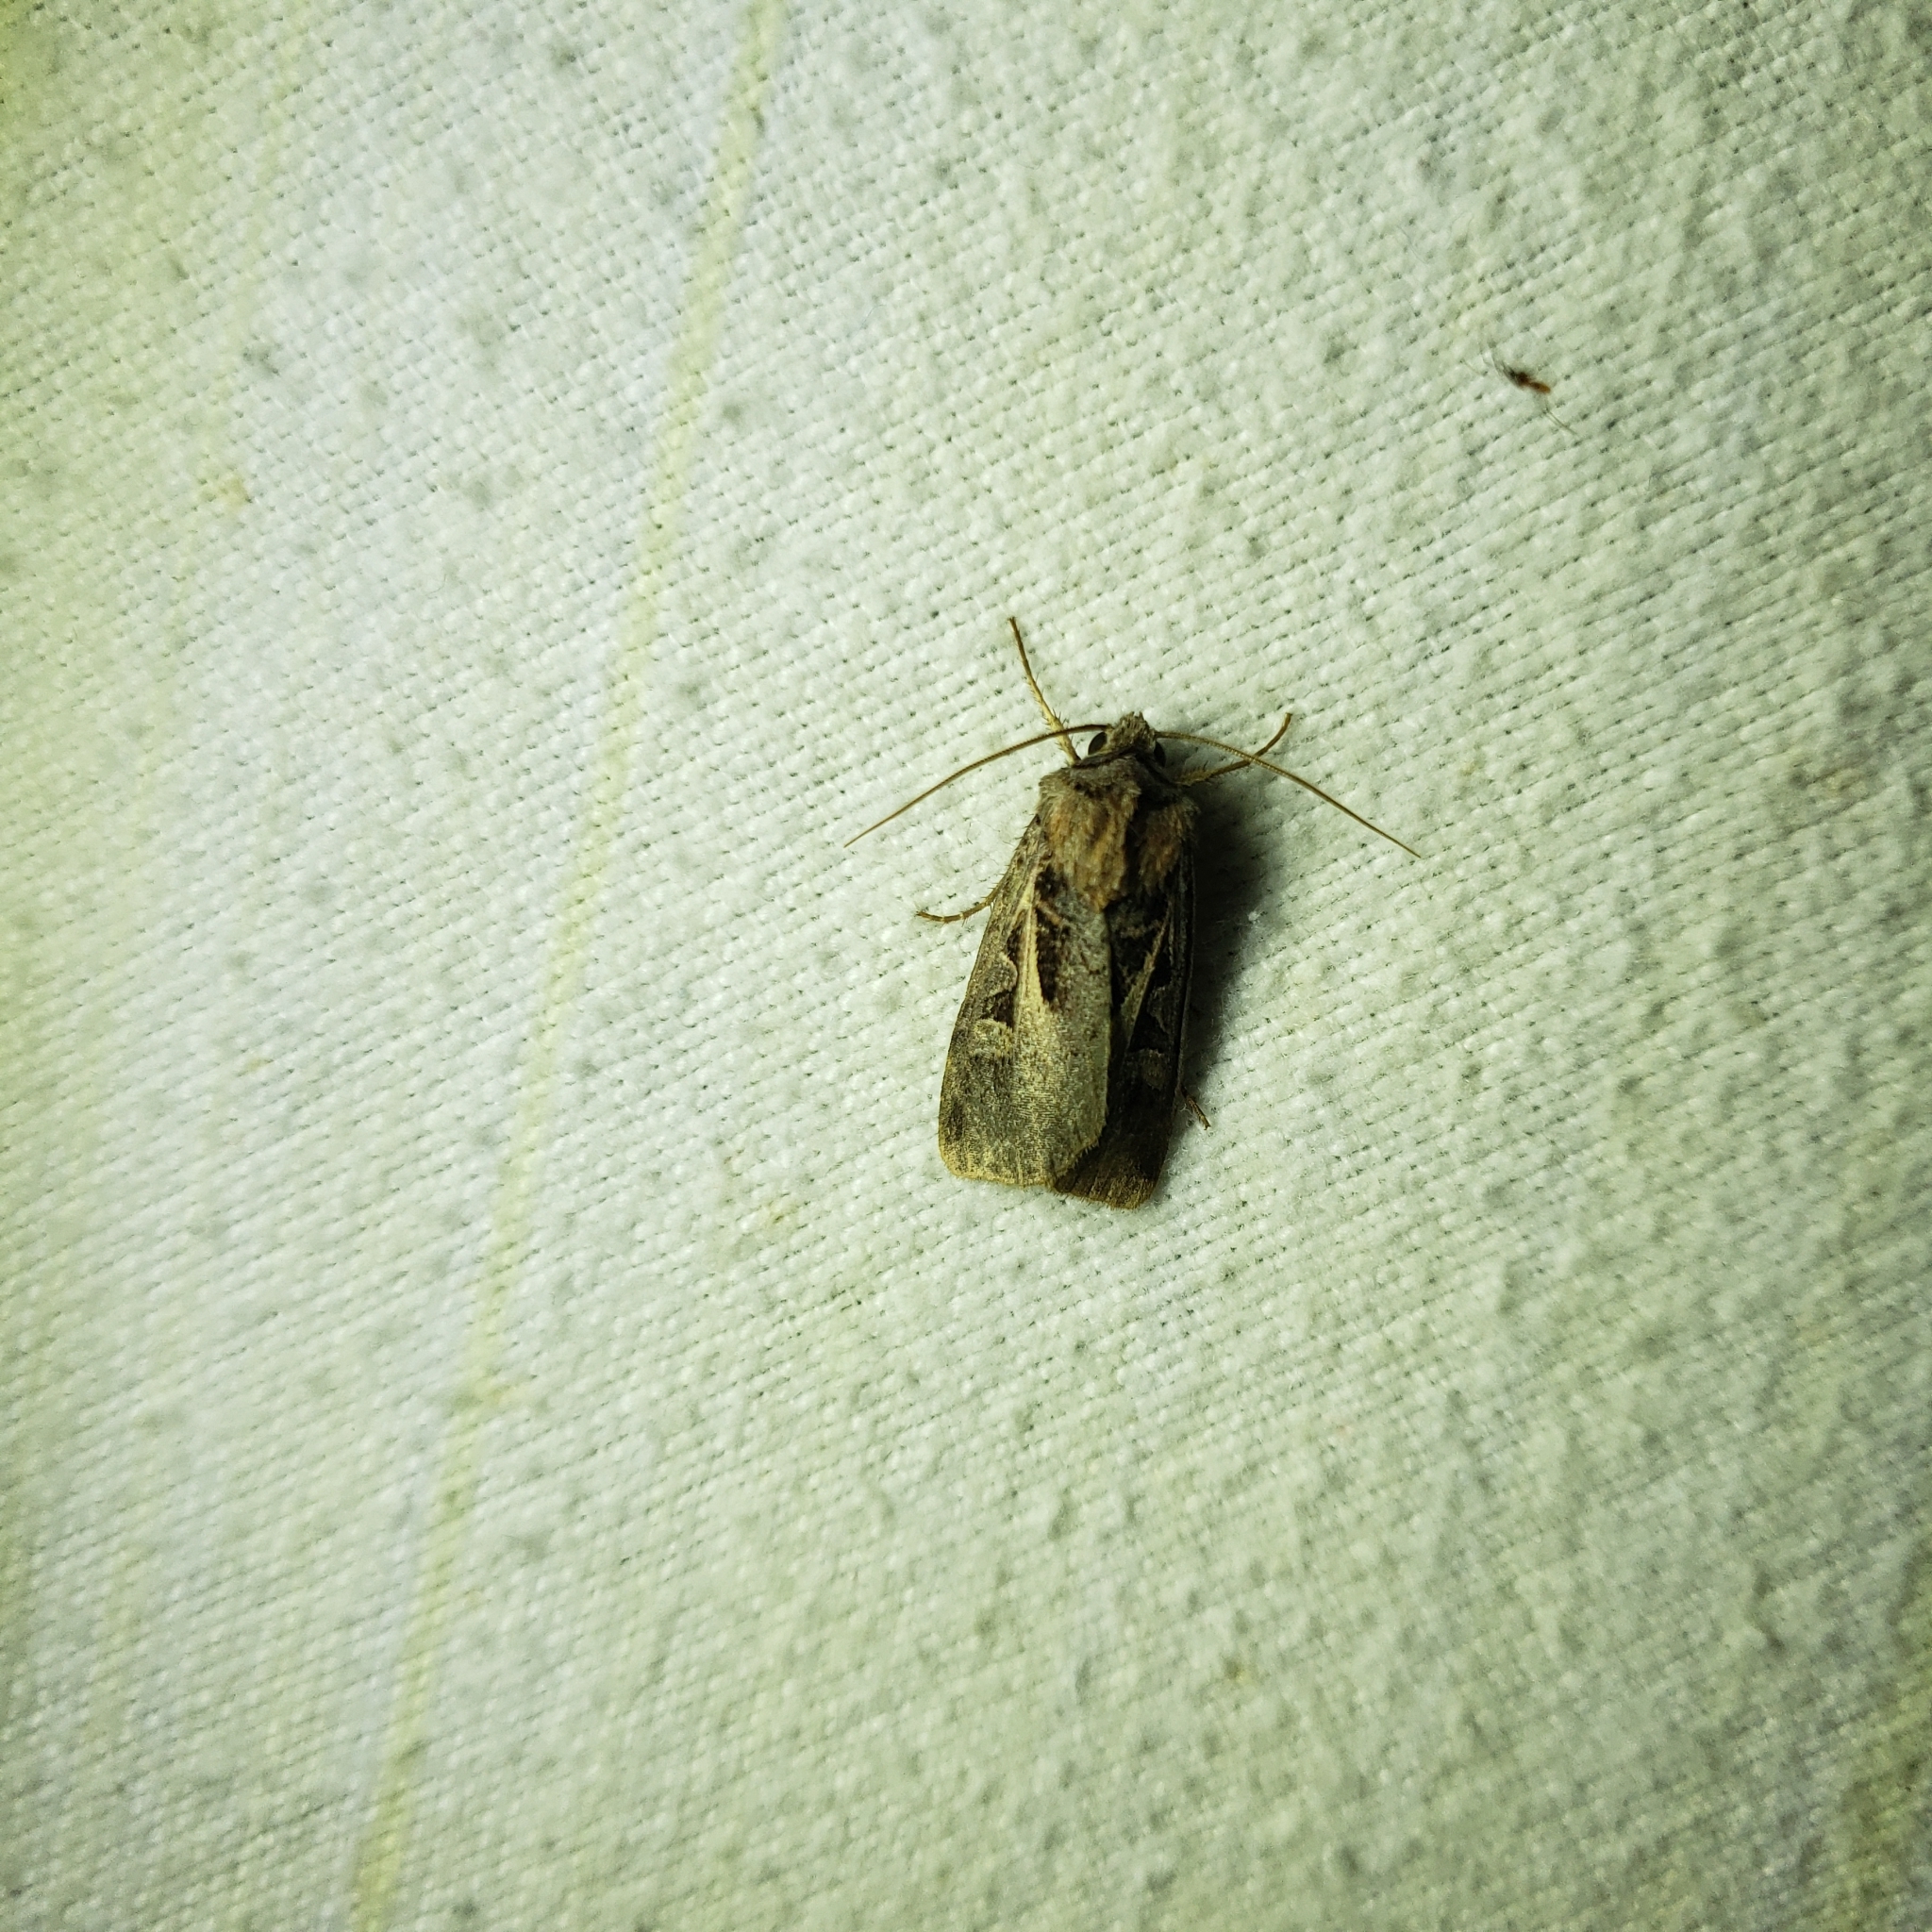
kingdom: Animalia
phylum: Arthropoda
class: Insecta
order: Lepidoptera
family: Noctuidae
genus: Feltia
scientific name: Feltia herilis
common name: Master's dart
